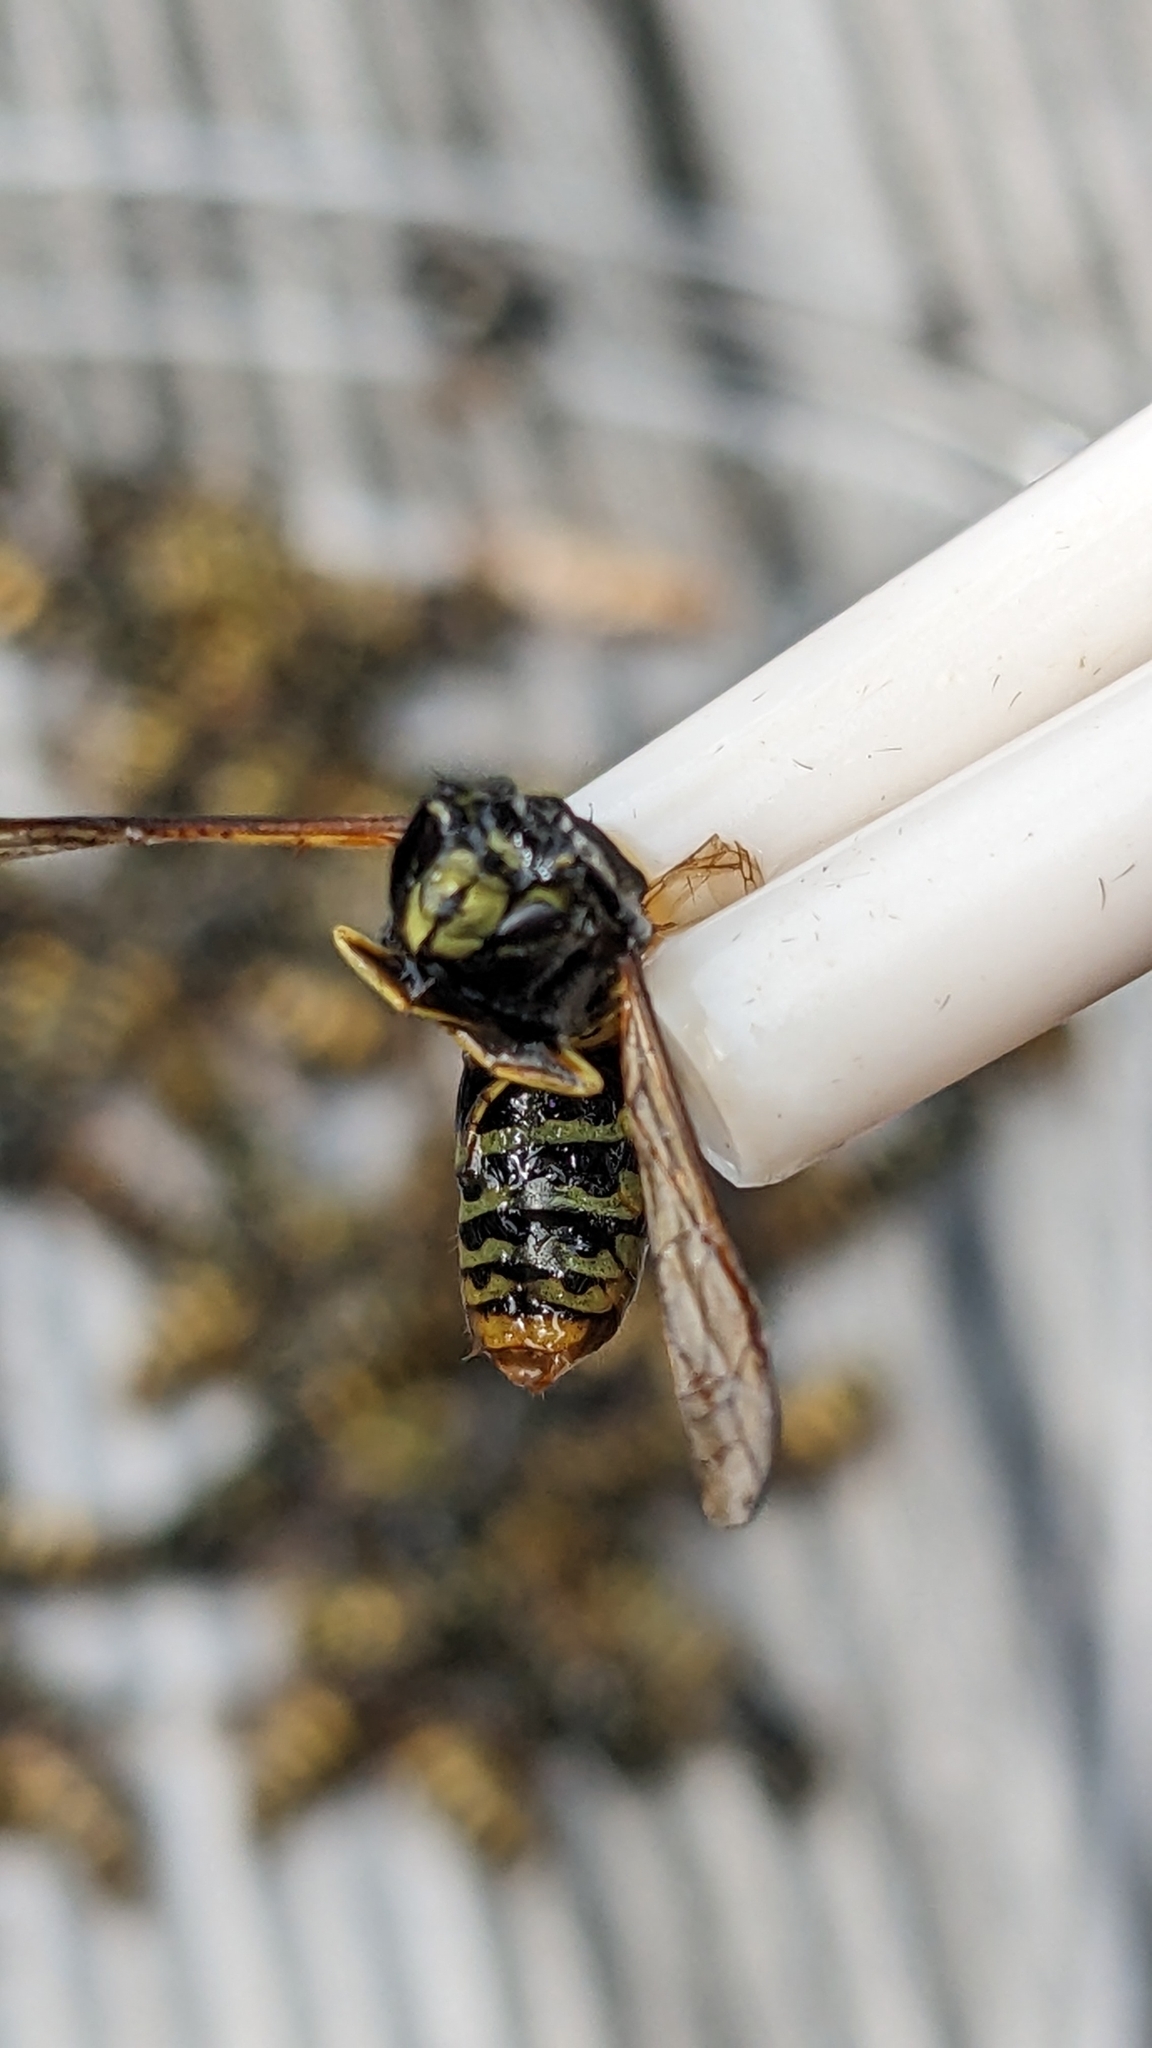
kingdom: Animalia
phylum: Arthropoda
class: Insecta
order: Hymenoptera
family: Vespidae
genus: Vespula
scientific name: Vespula vulgaris
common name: Common wasp
